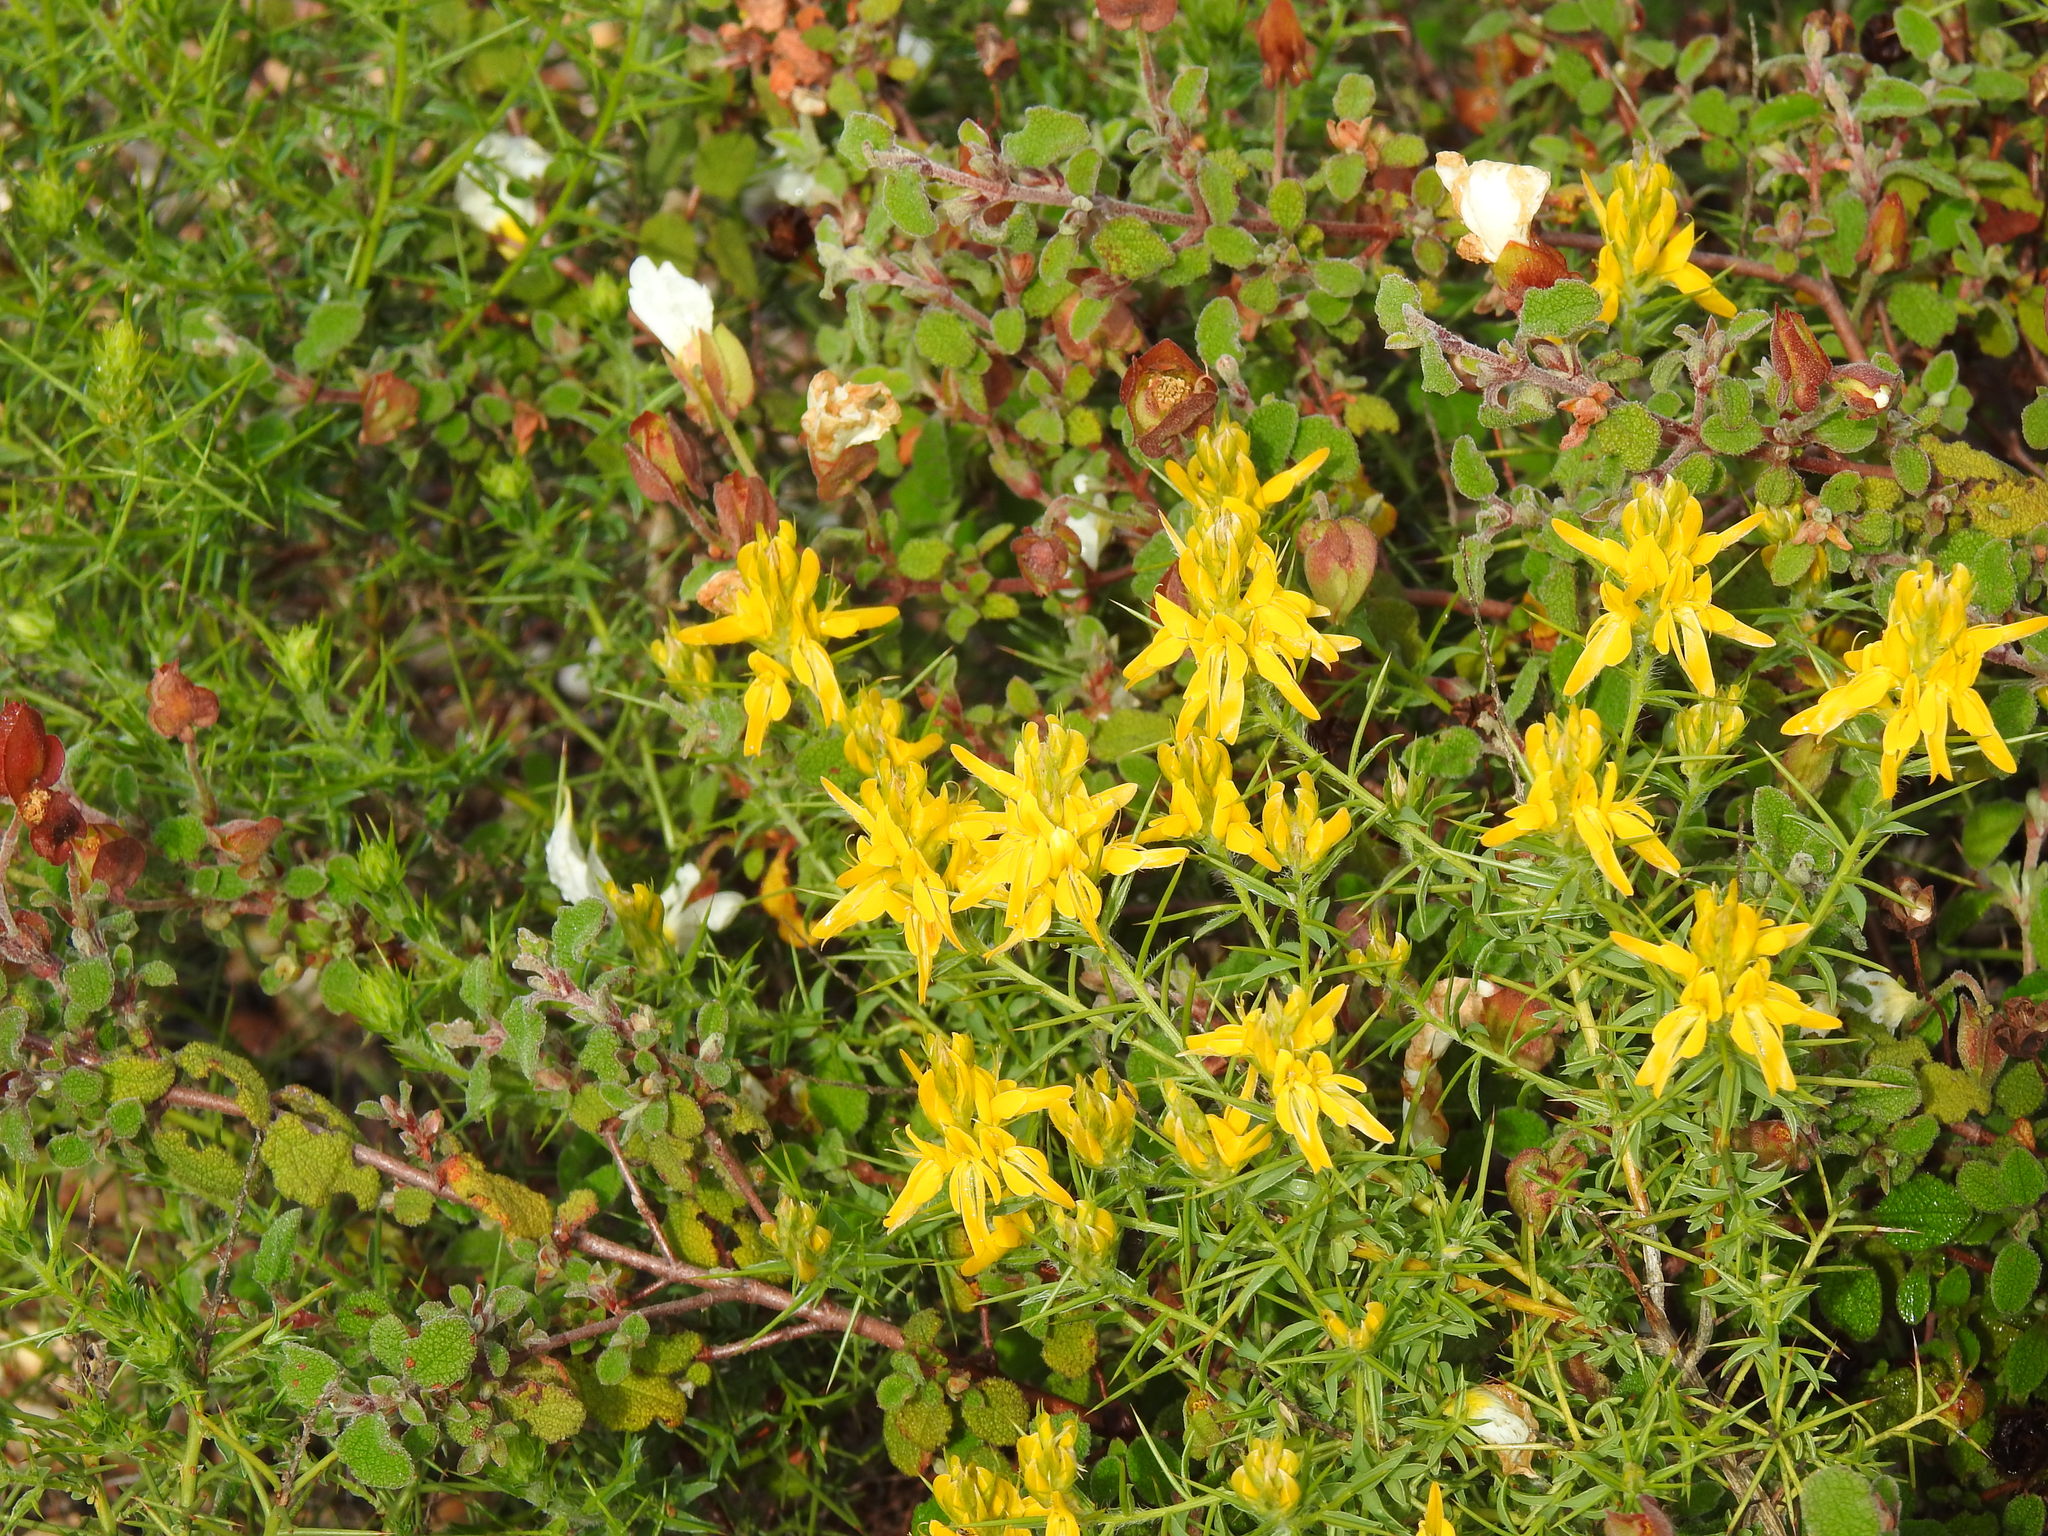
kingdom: Plantae
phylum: Tracheophyta
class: Magnoliopsida
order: Fabales
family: Fabaceae
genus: Genista
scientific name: Genista hirsuta
